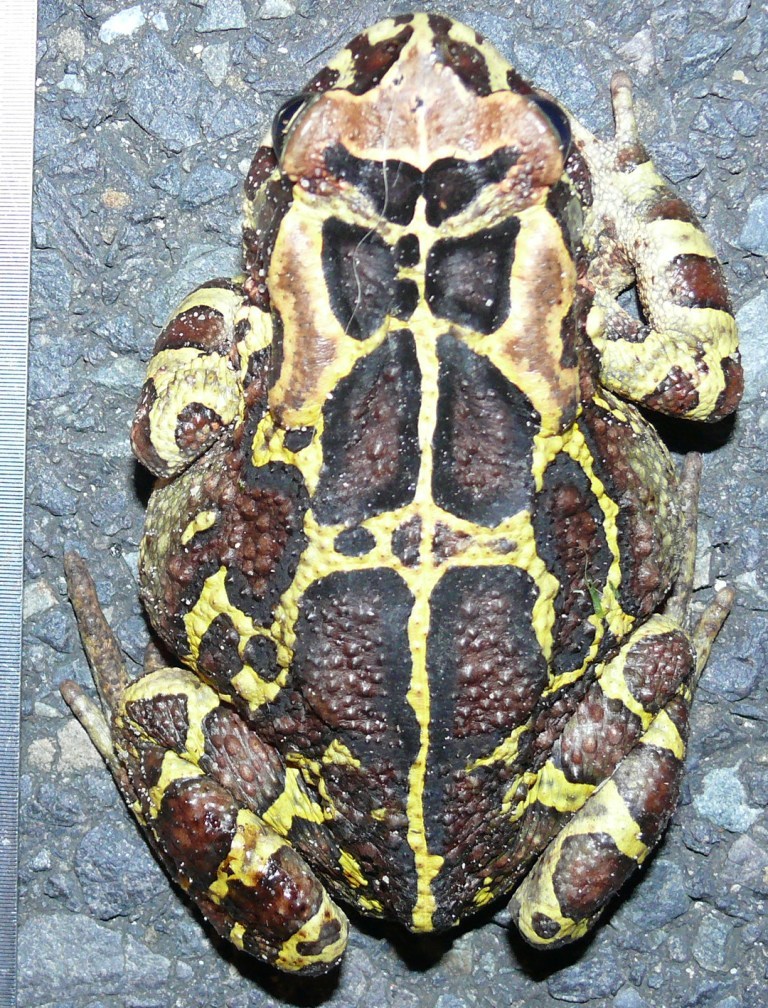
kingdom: Animalia
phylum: Chordata
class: Amphibia
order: Anura
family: Bufonidae
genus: Sclerophrys
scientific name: Sclerophrys pantherina
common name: Panther toad
